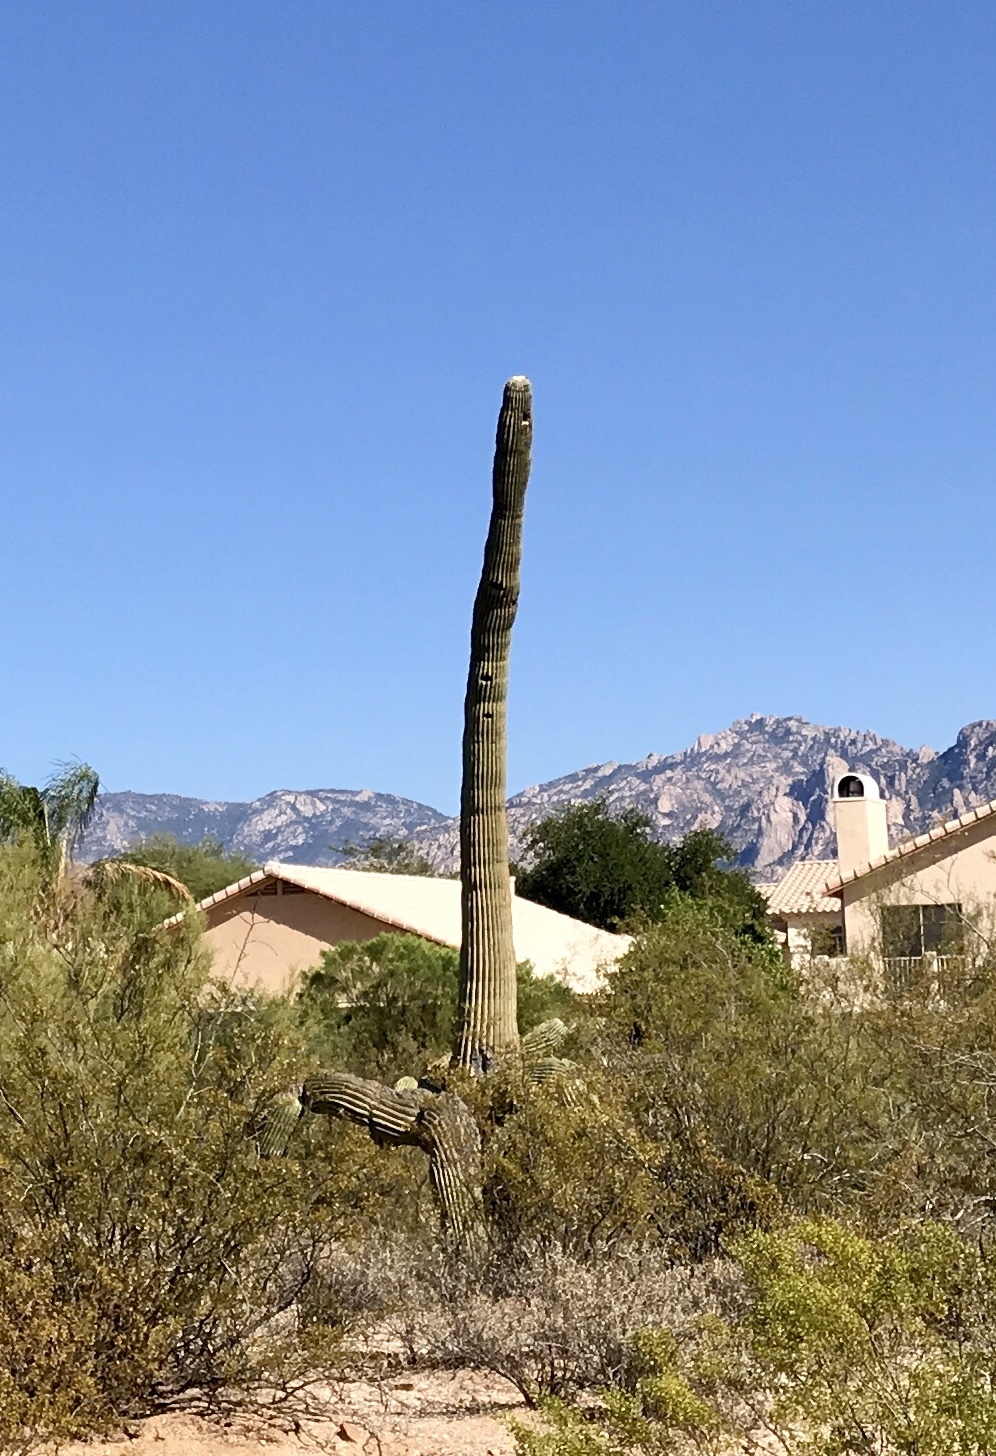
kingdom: Plantae
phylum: Tracheophyta
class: Magnoliopsida
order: Caryophyllales
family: Cactaceae
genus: Carnegiea
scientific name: Carnegiea gigantea
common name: Saguaro
